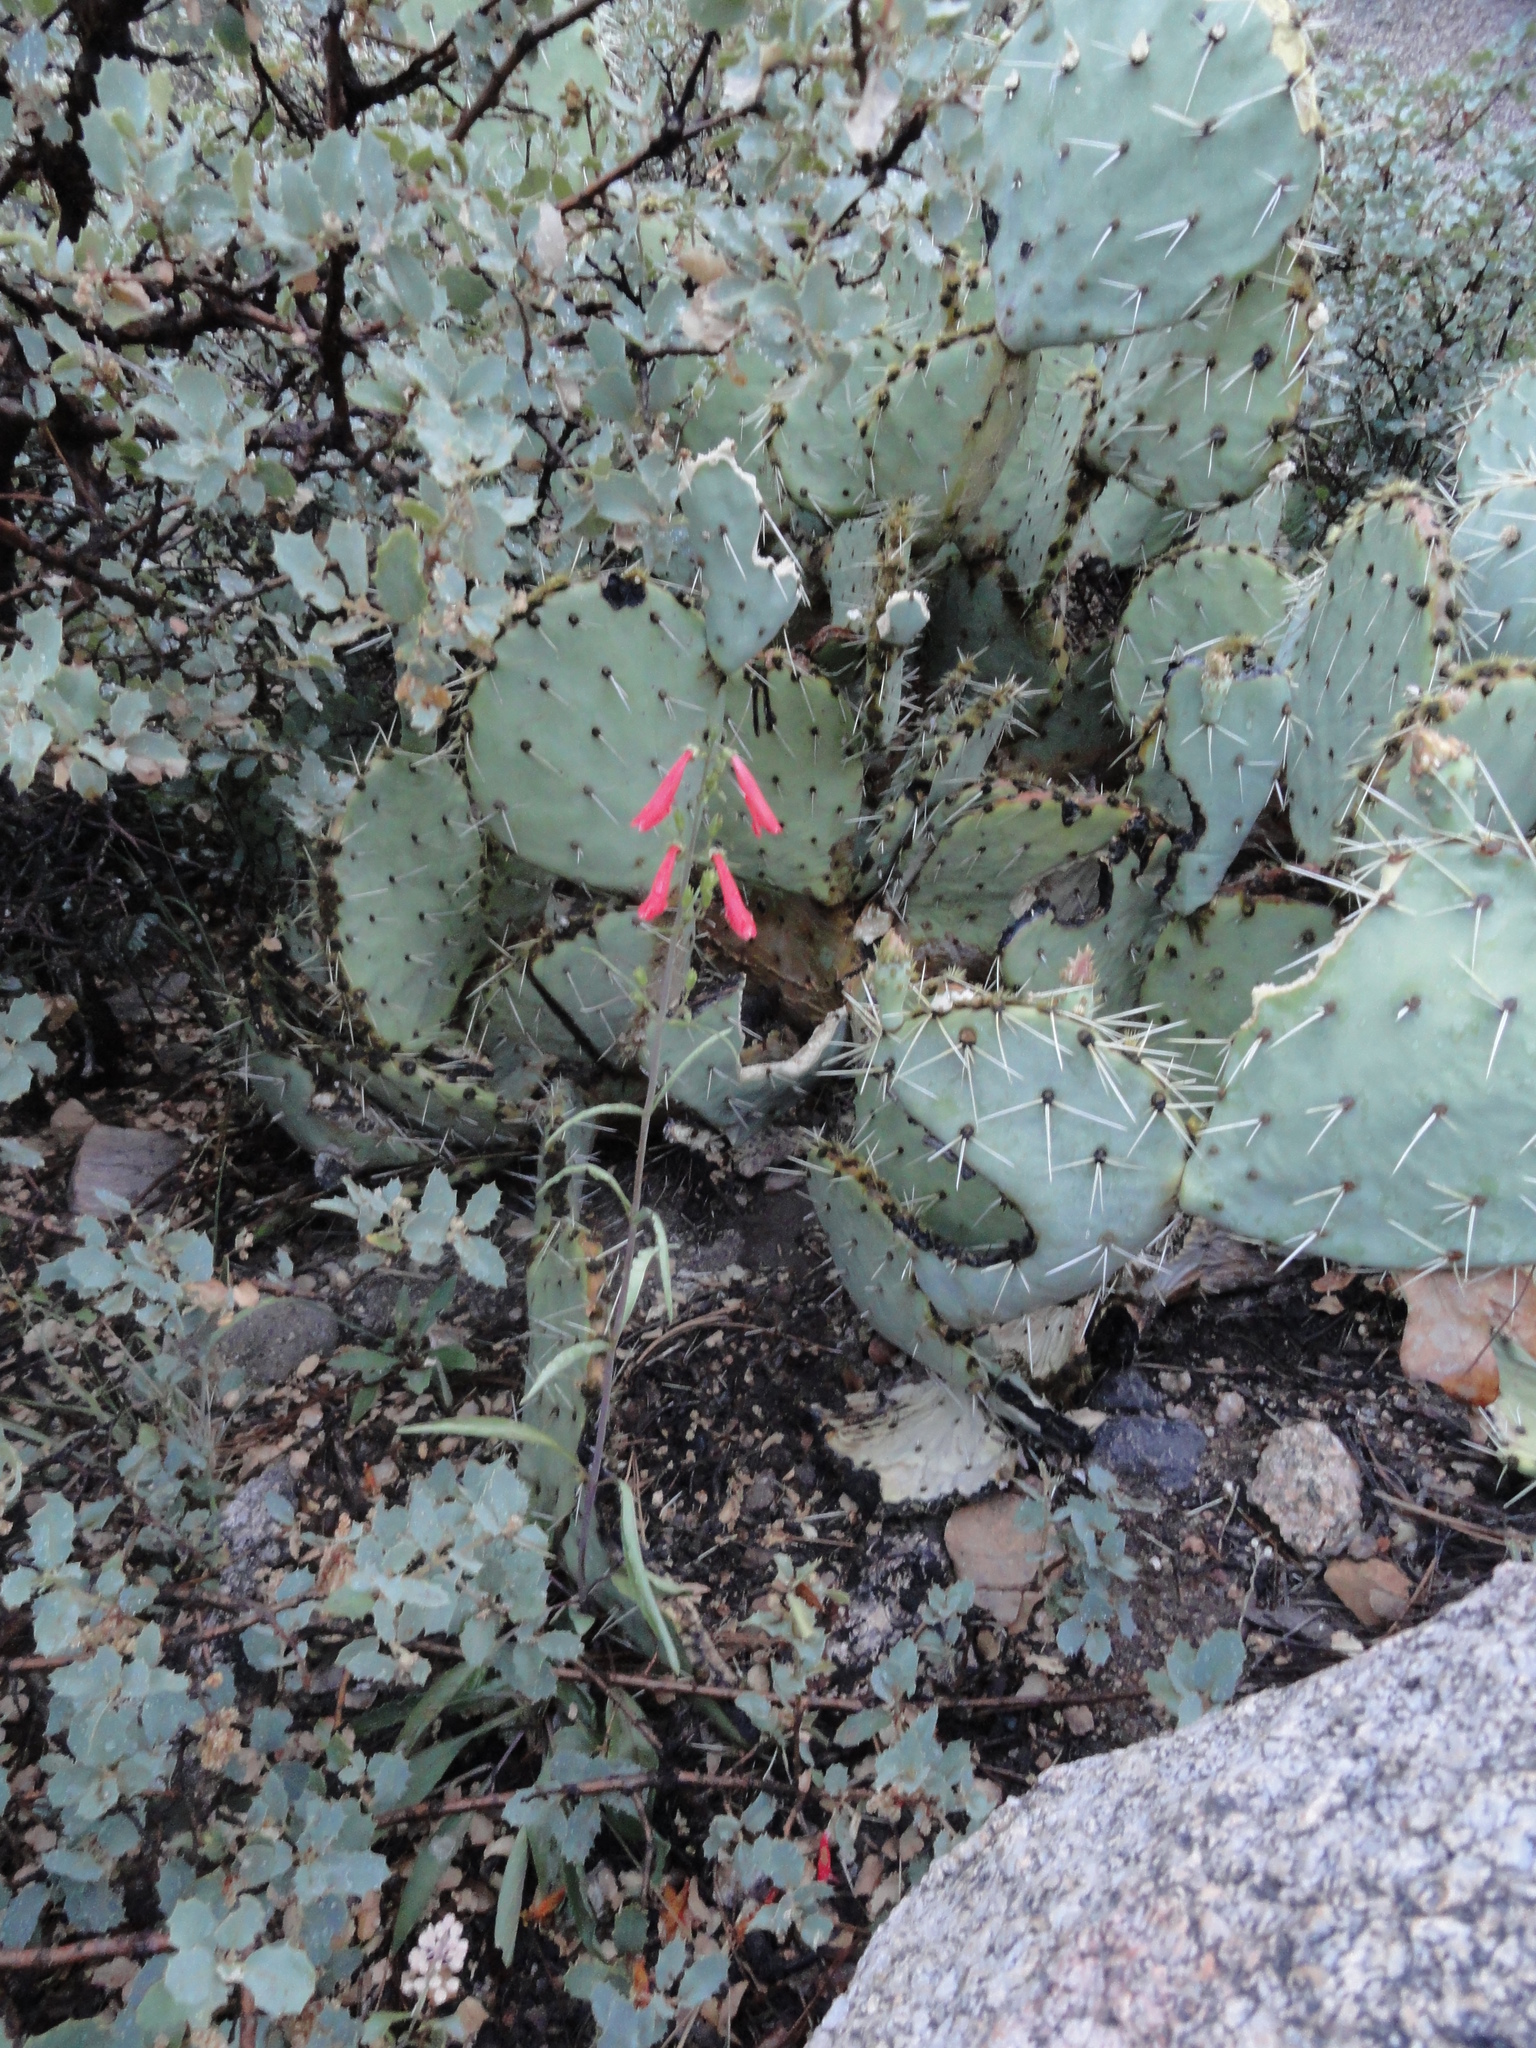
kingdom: Plantae
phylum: Tracheophyta
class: Magnoliopsida
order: Lamiales
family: Plantaginaceae
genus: Penstemon
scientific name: Penstemon
